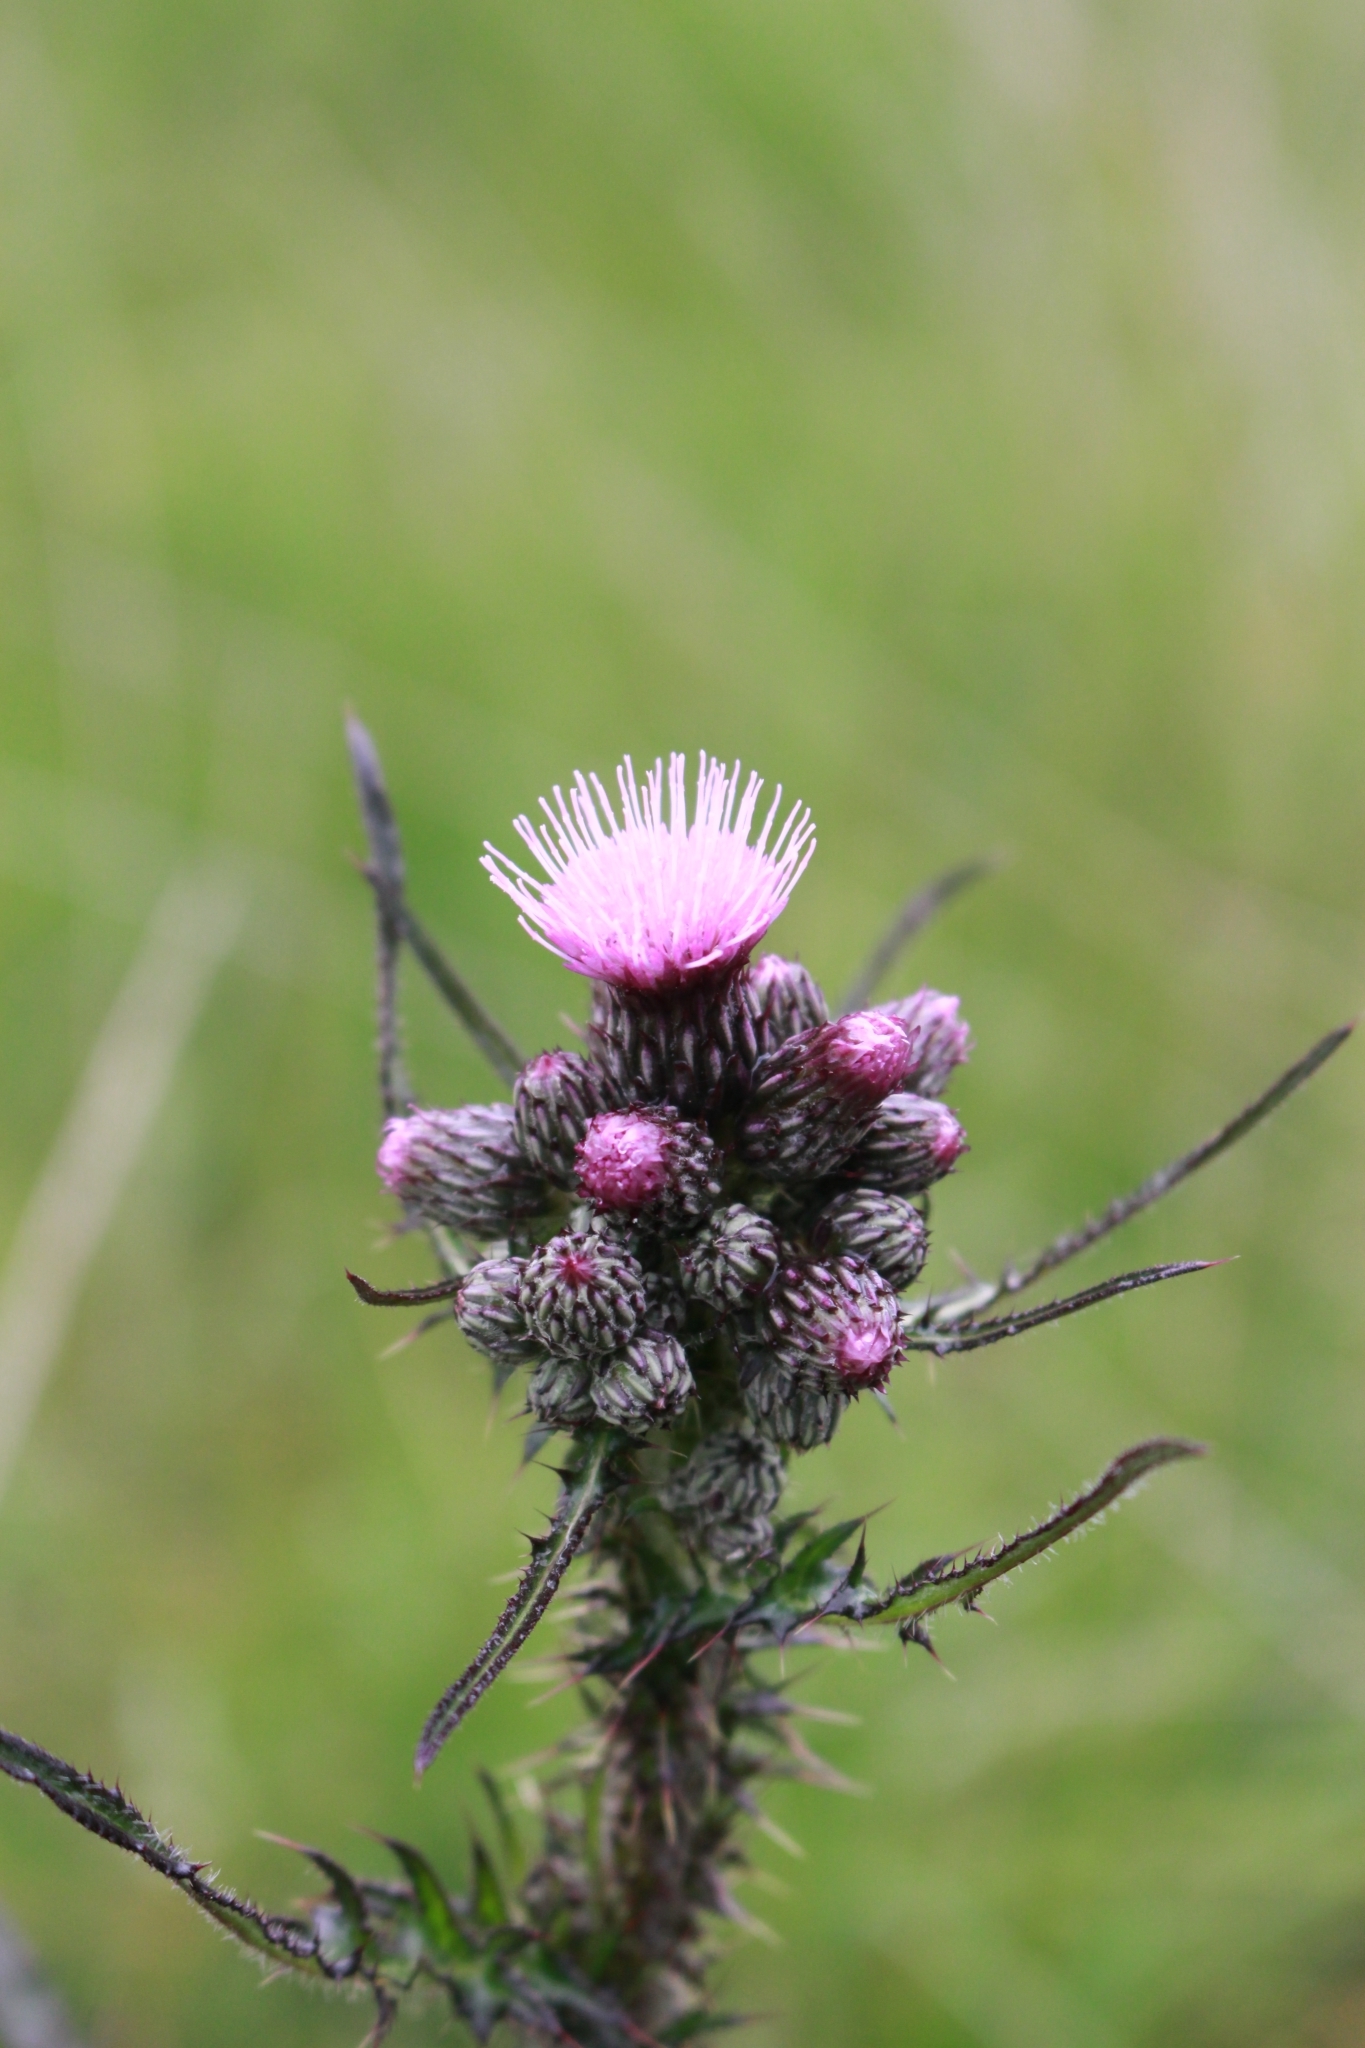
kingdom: Plantae
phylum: Tracheophyta
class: Magnoliopsida
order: Asterales
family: Asteraceae
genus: Cirsium
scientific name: Cirsium palustre
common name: Marsh thistle
